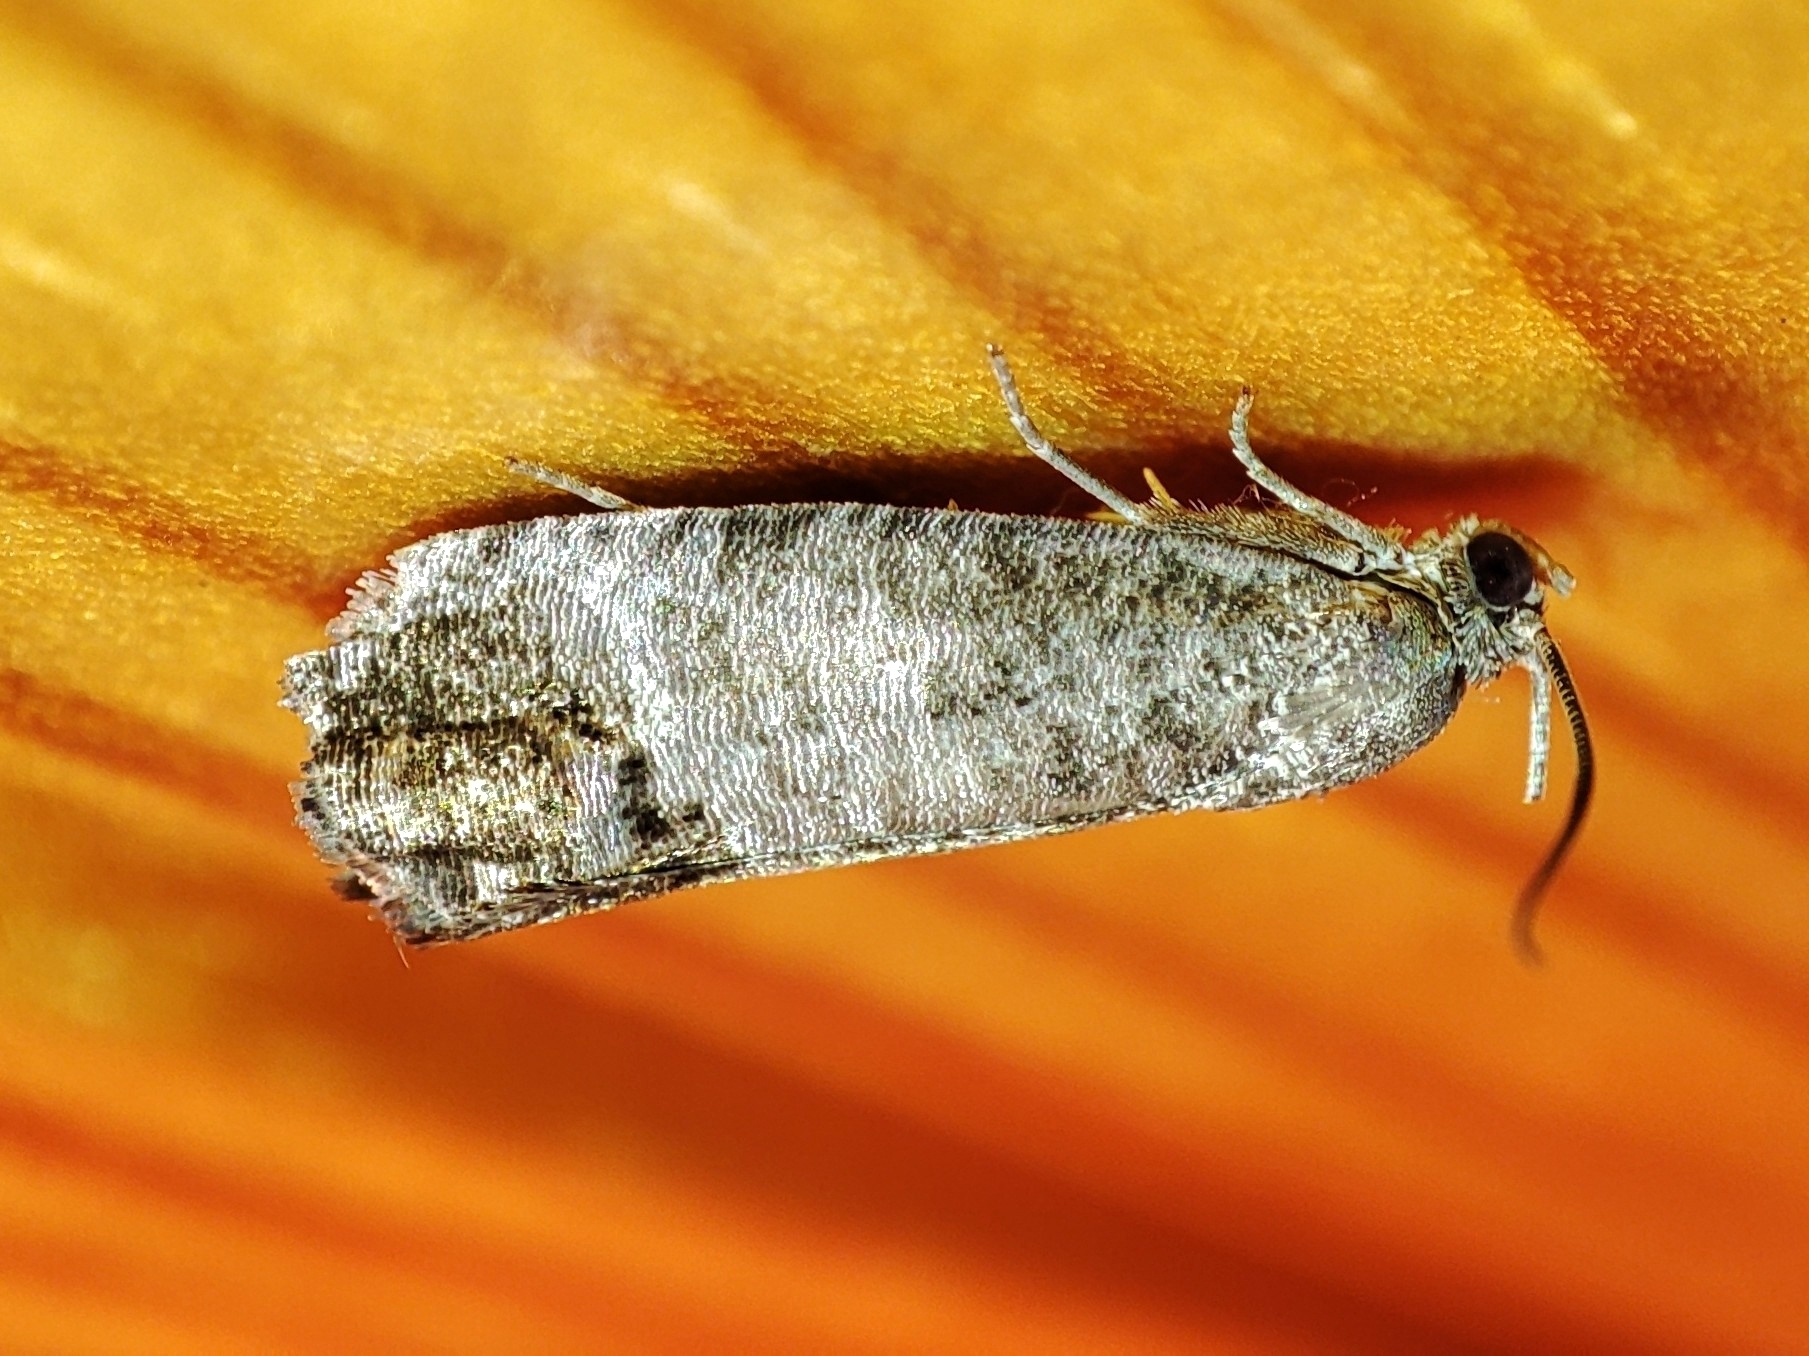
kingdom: Animalia
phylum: Arthropoda
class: Insecta
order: Lepidoptera
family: Tortricidae
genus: Cydia
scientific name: Cydia pomonella
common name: Codling moth
